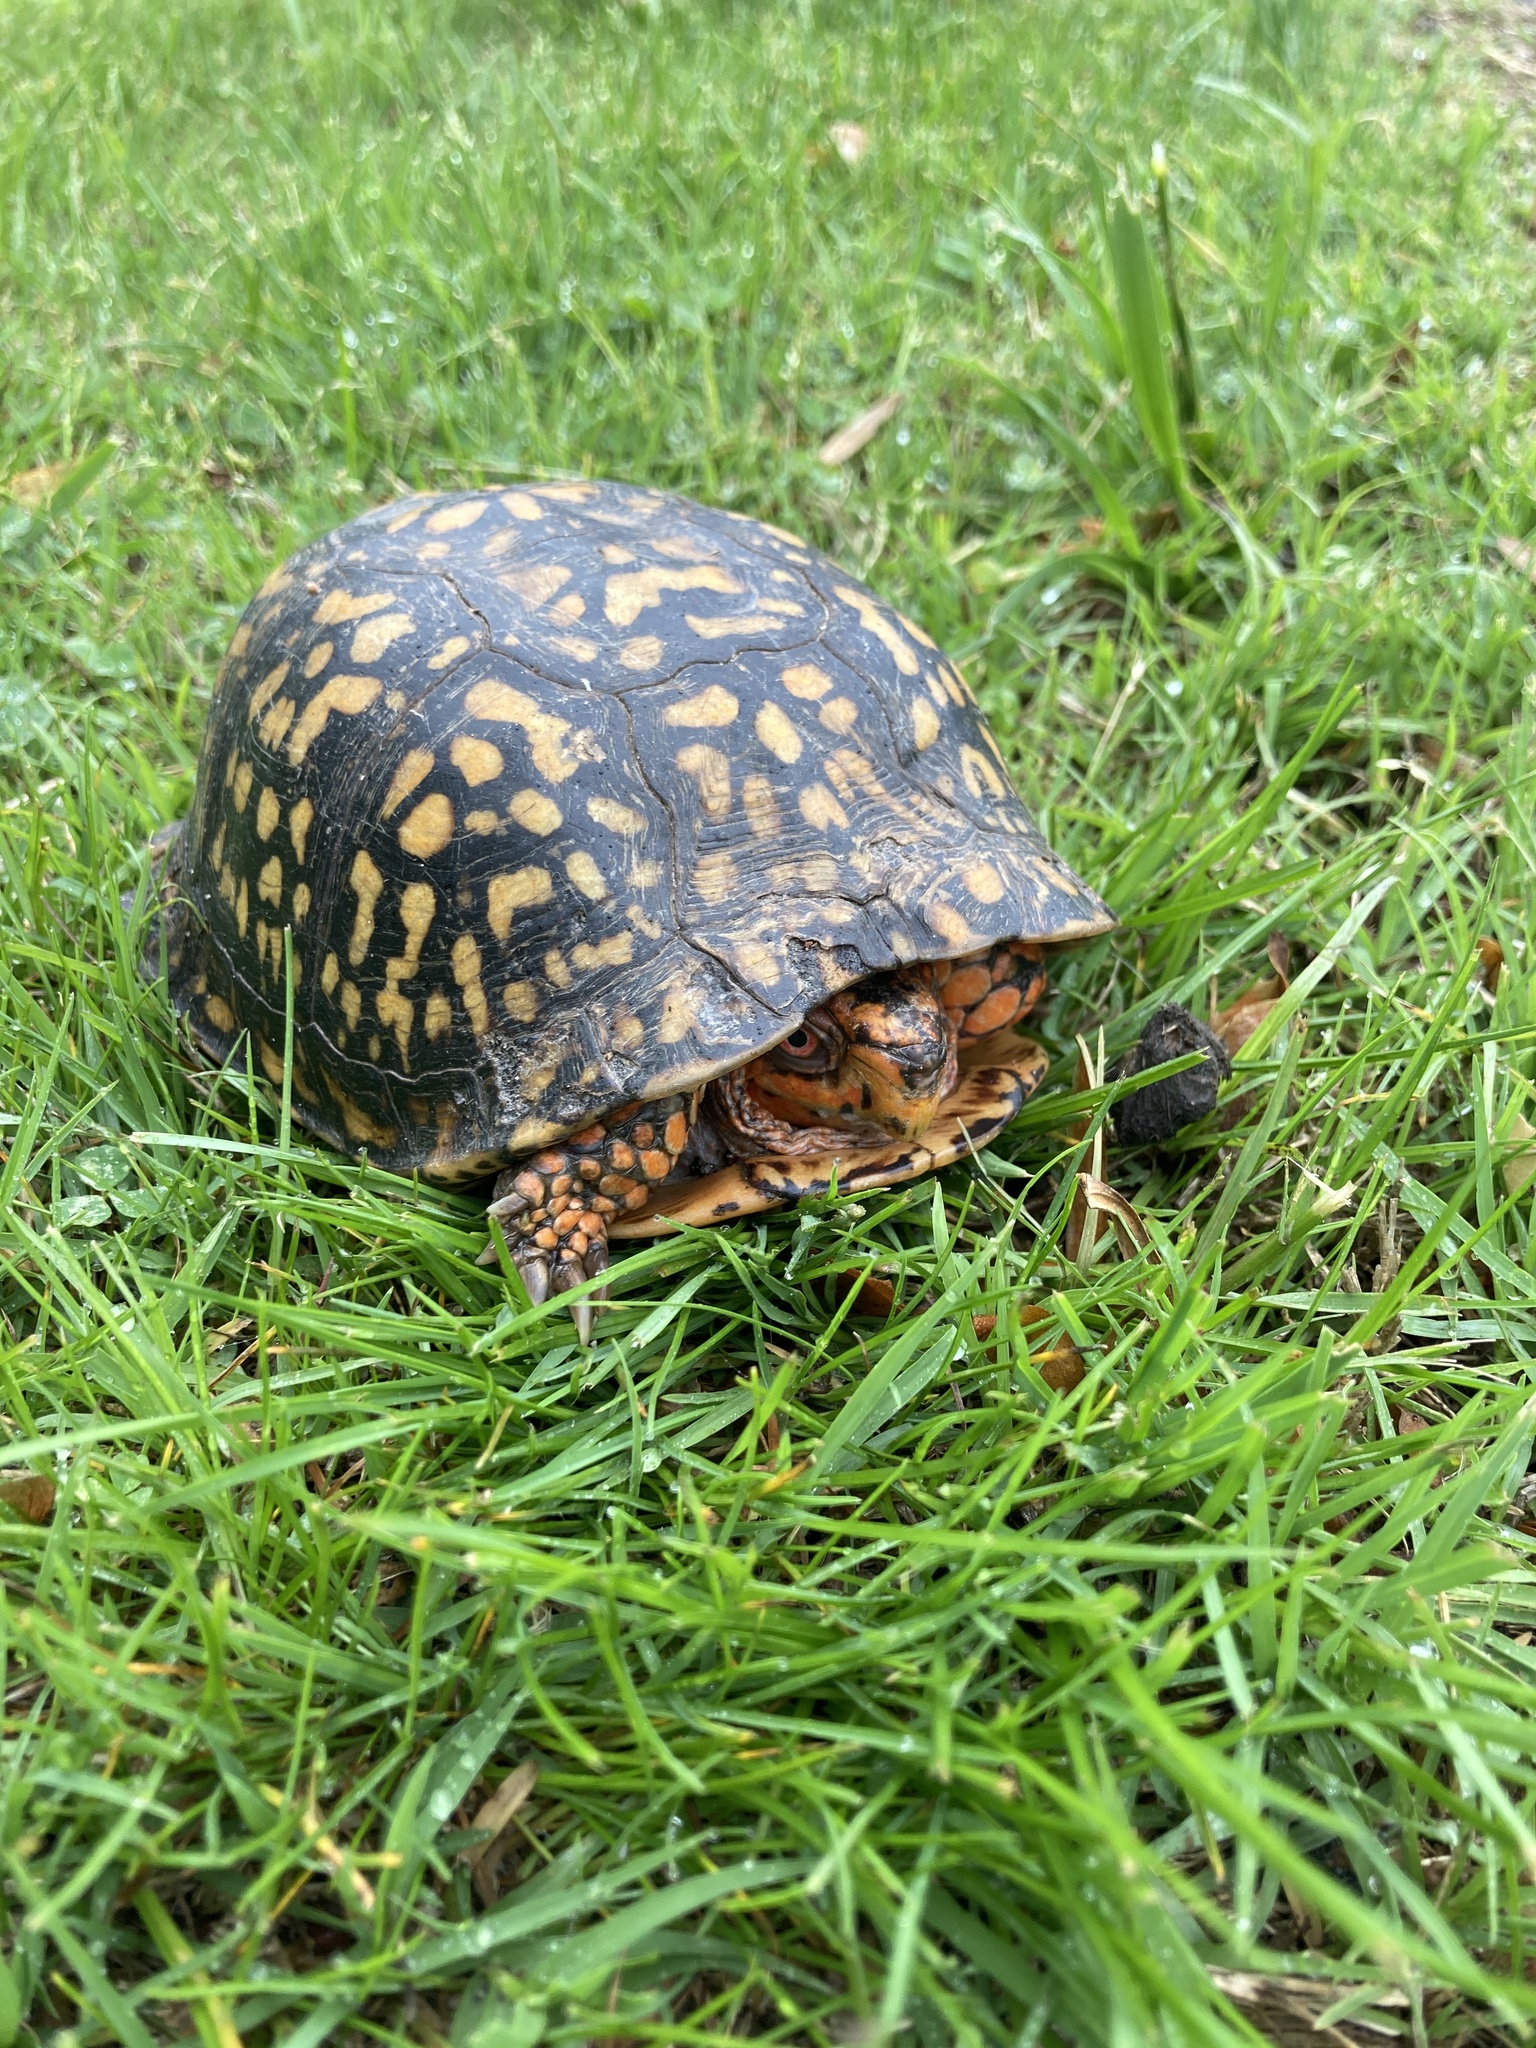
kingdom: Animalia
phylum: Chordata
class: Testudines
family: Emydidae
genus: Terrapene
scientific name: Terrapene carolina
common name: Common box turtle
